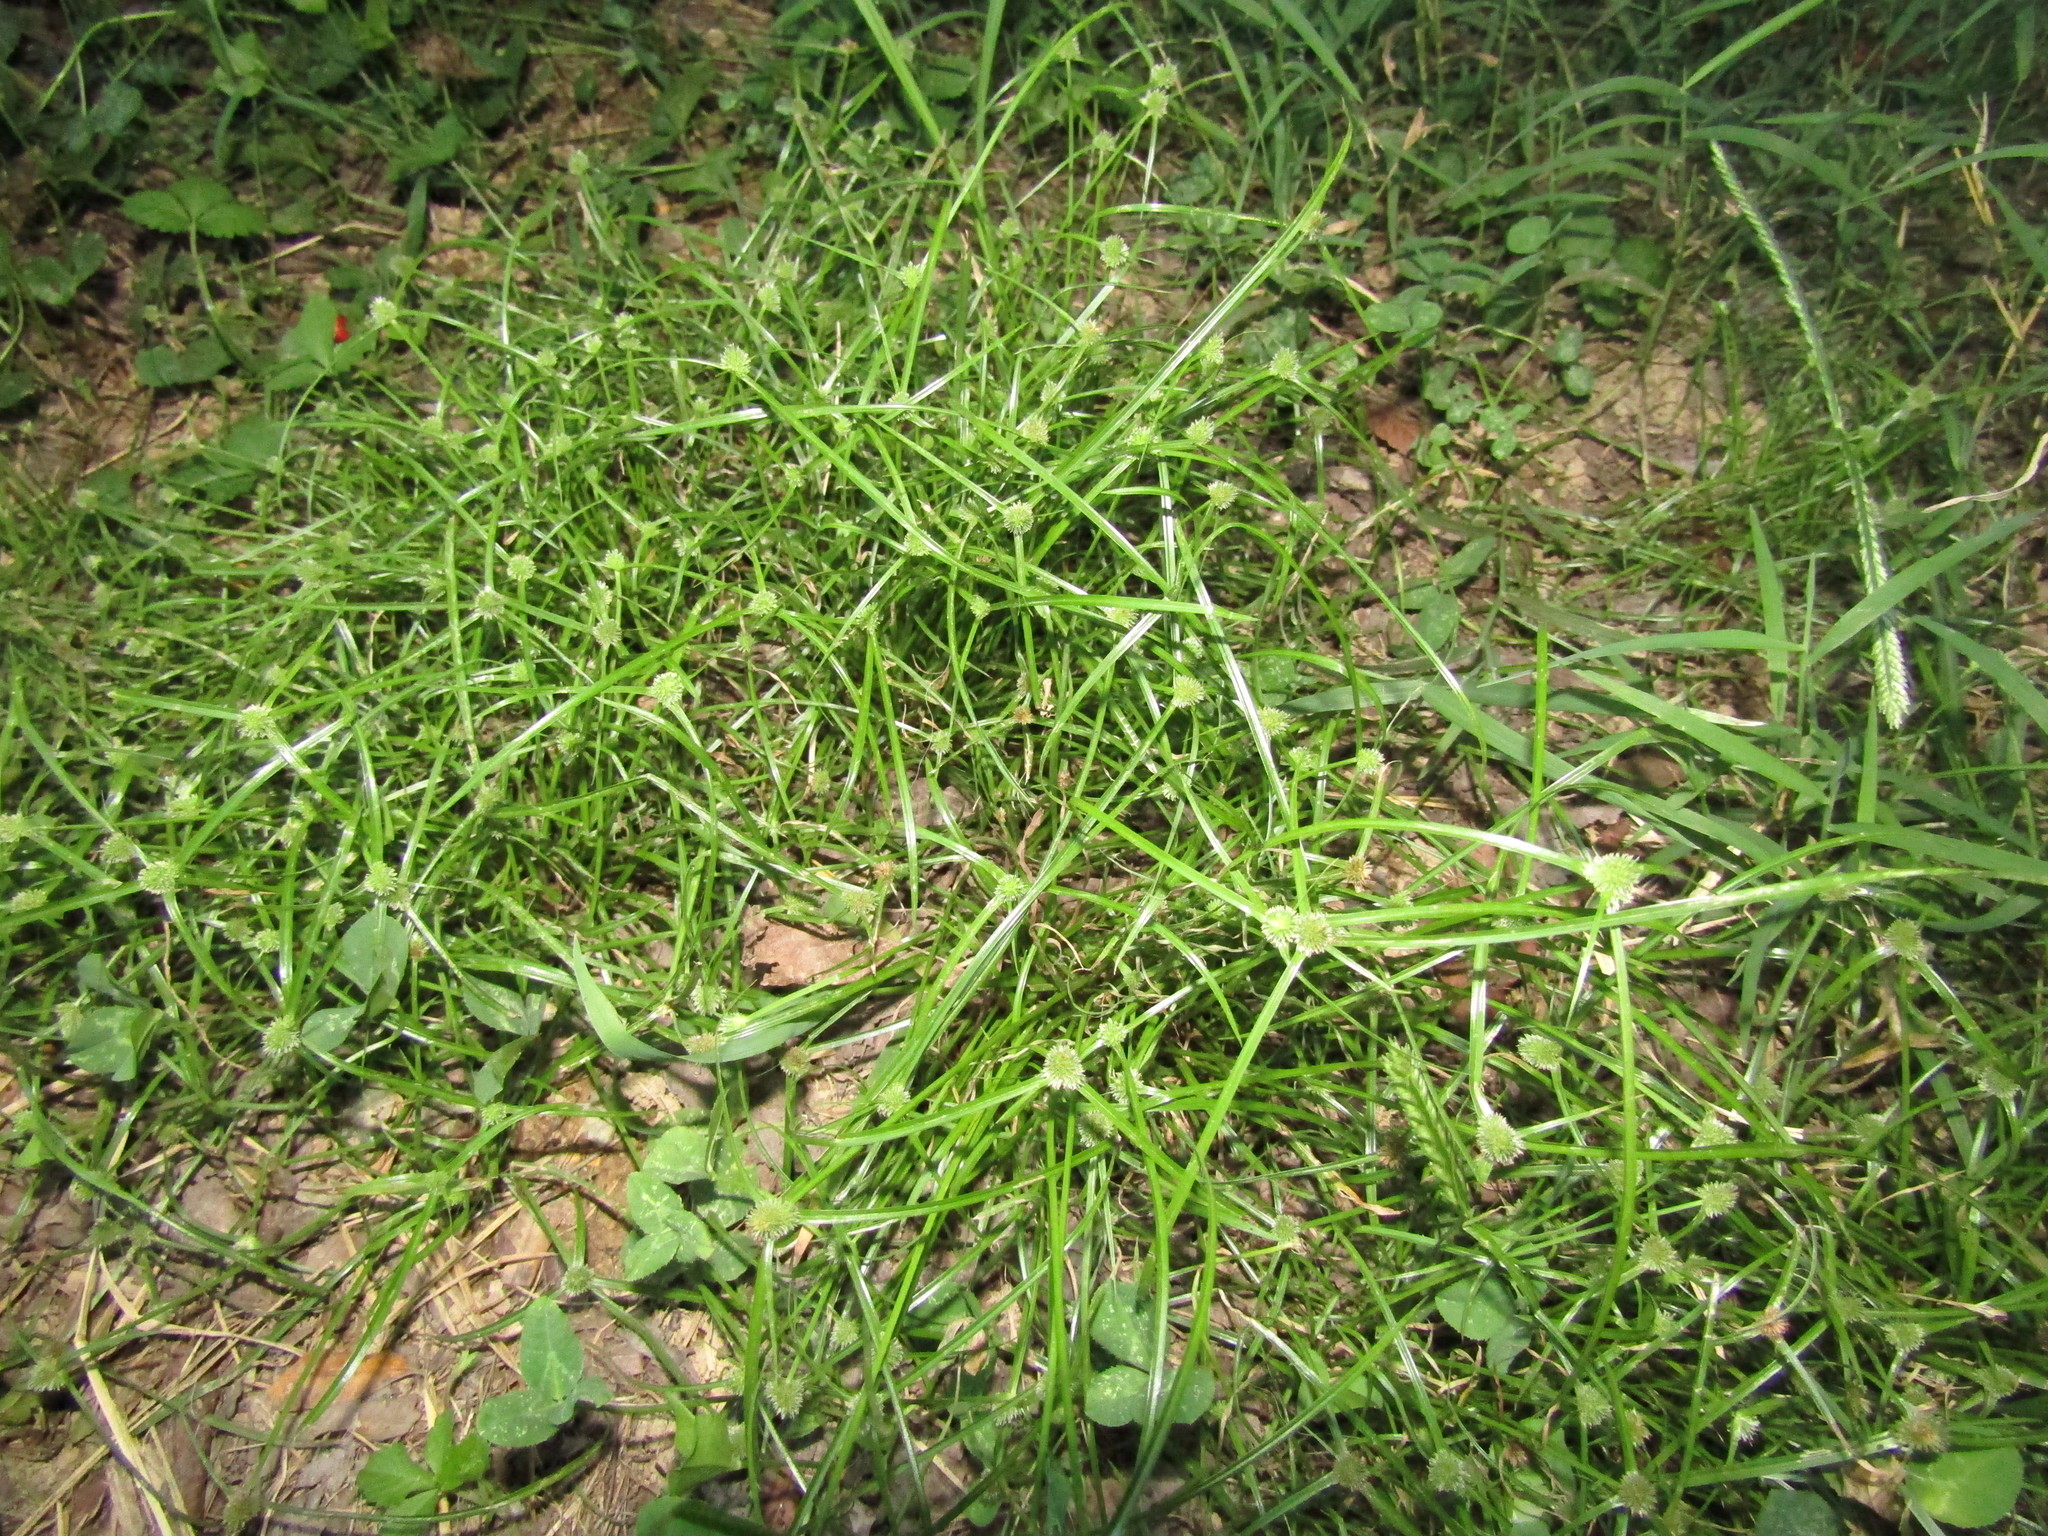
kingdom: Plantae
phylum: Tracheophyta
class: Liliopsida
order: Poales
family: Cyperaceae
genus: Cyperus
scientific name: Cyperus brevifolius
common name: Globe kyllinga
